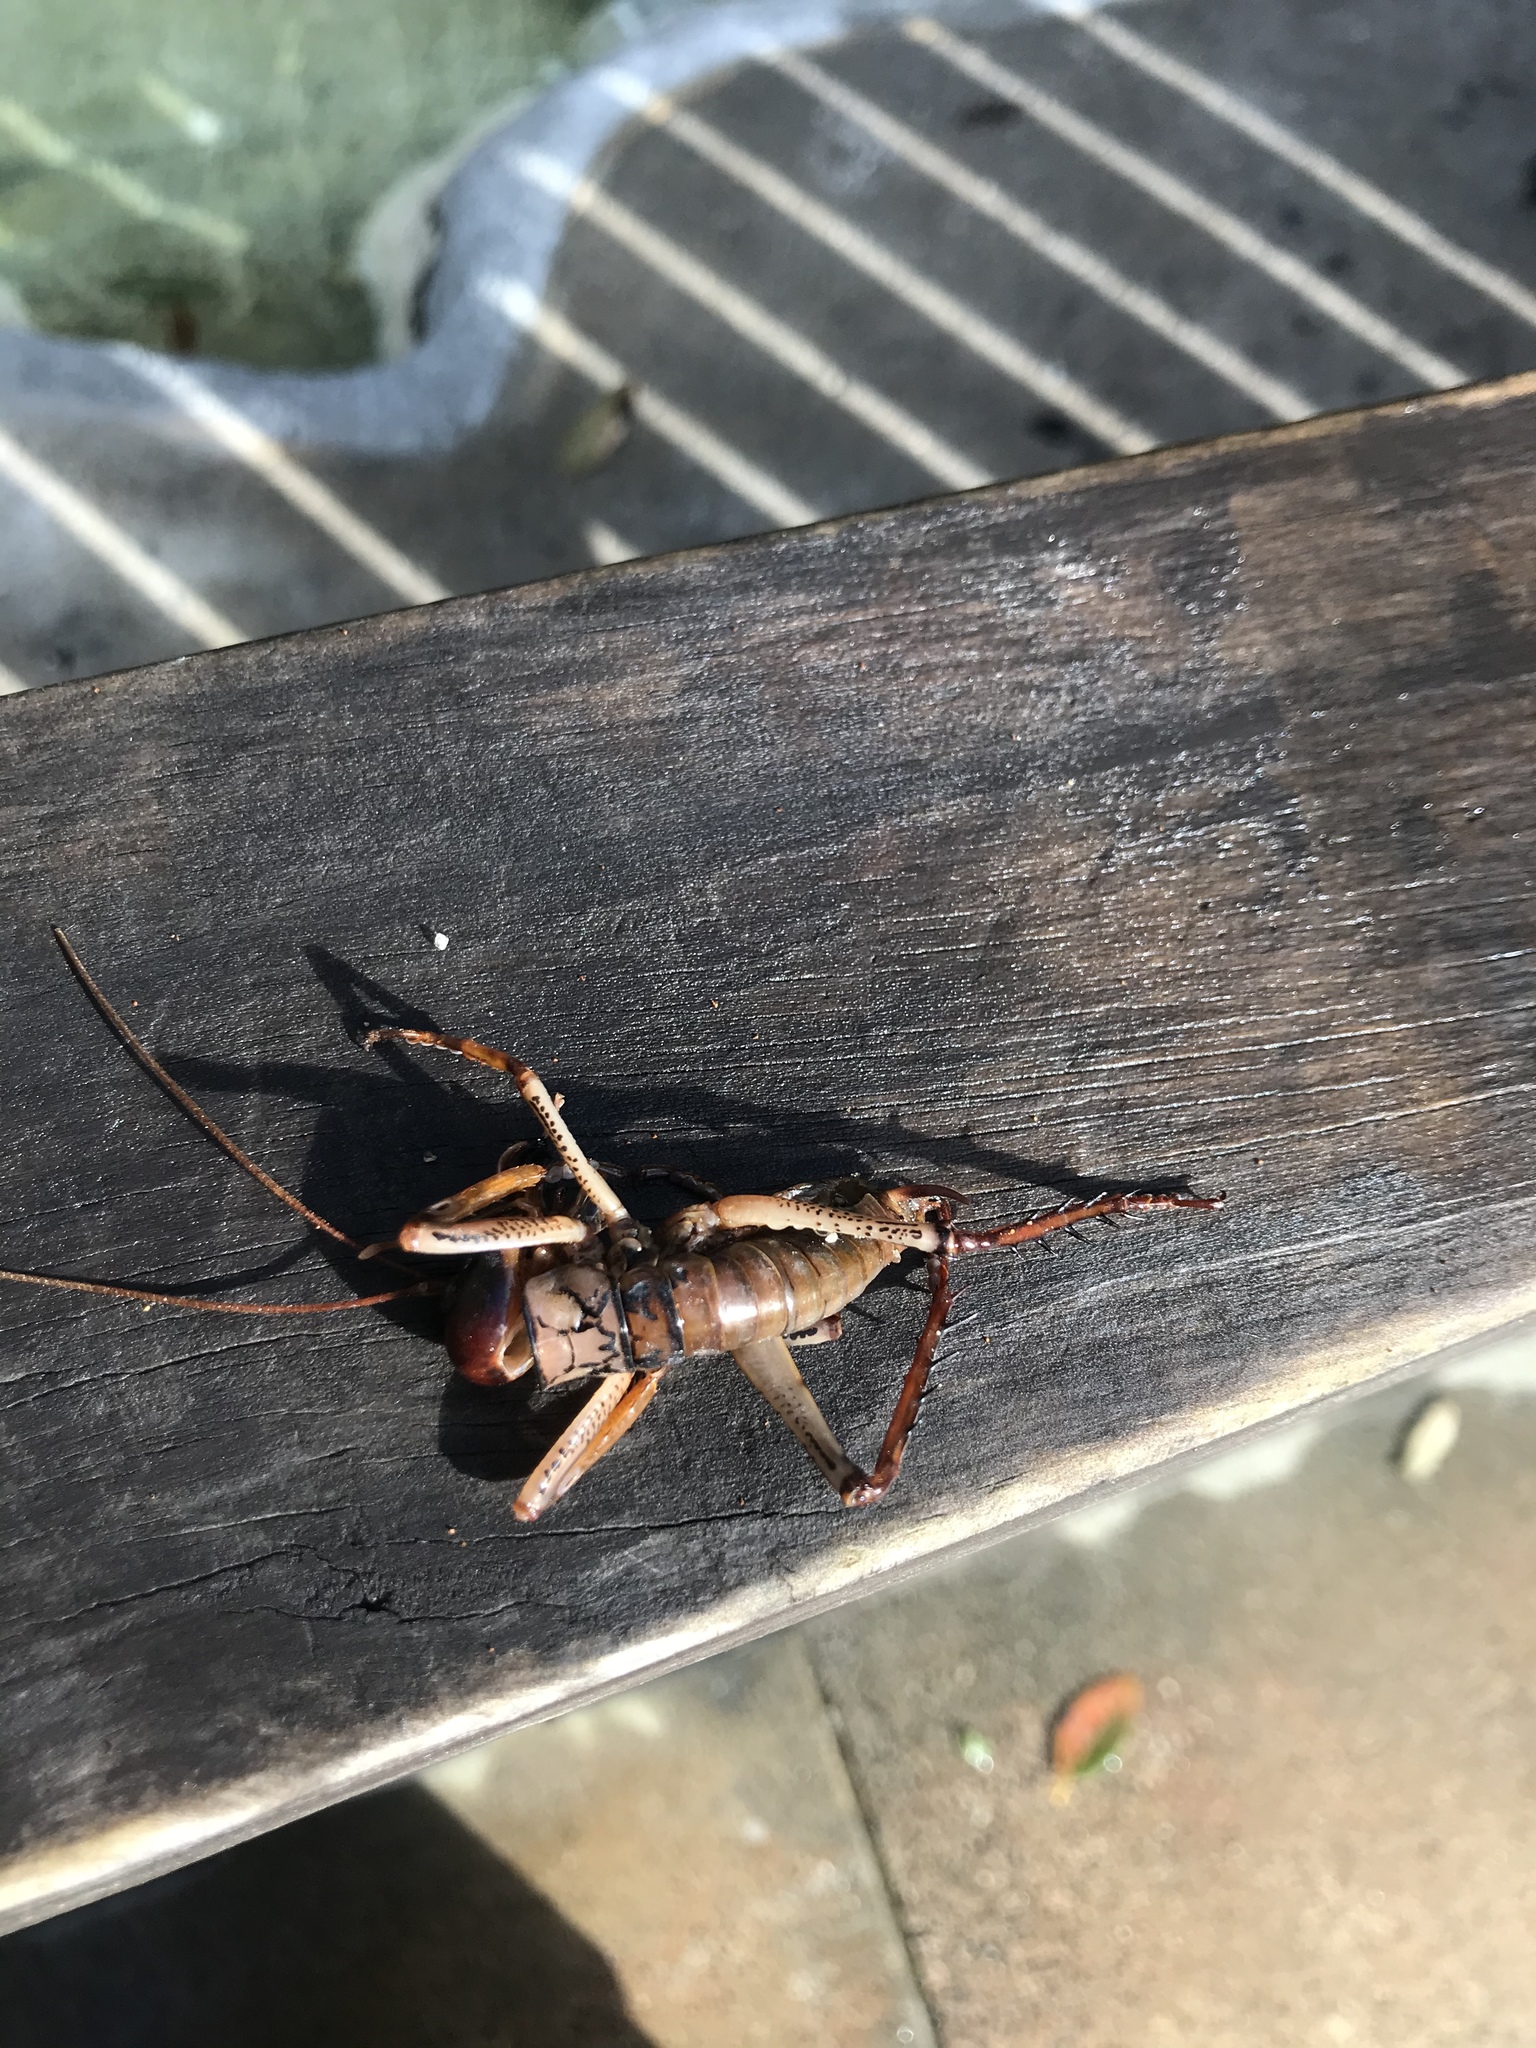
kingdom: Animalia
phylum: Arthropoda
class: Insecta
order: Orthoptera
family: Anostostomatidae
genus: Hemideina
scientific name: Hemideina thoracica
